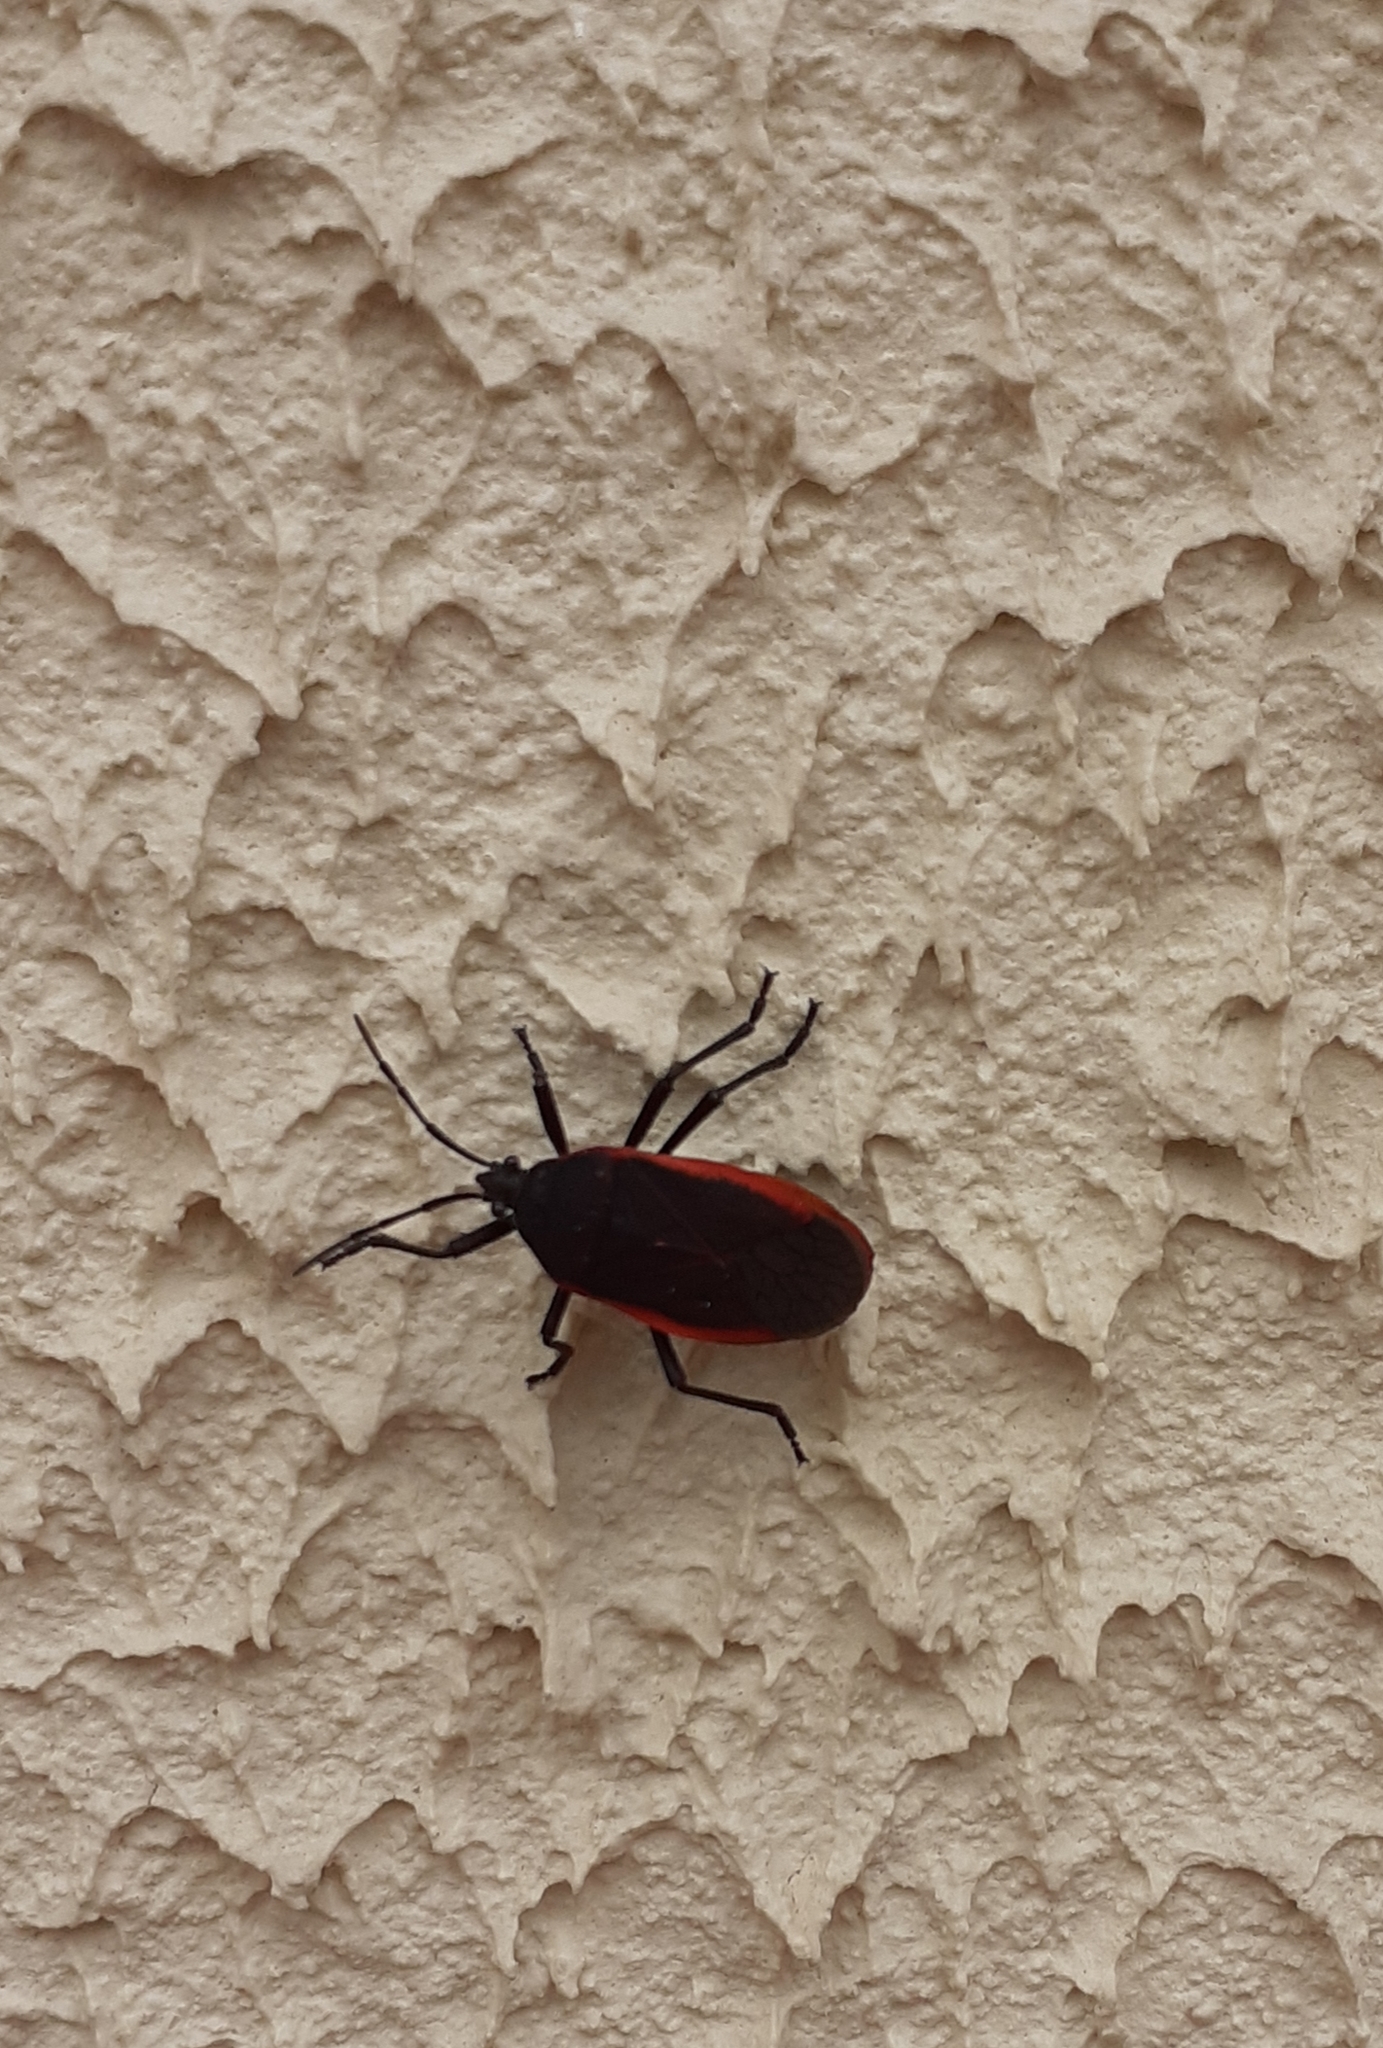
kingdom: Animalia
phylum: Arthropoda
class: Insecta
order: Hemiptera
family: Largidae
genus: Largus
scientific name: Largus rufipennis
